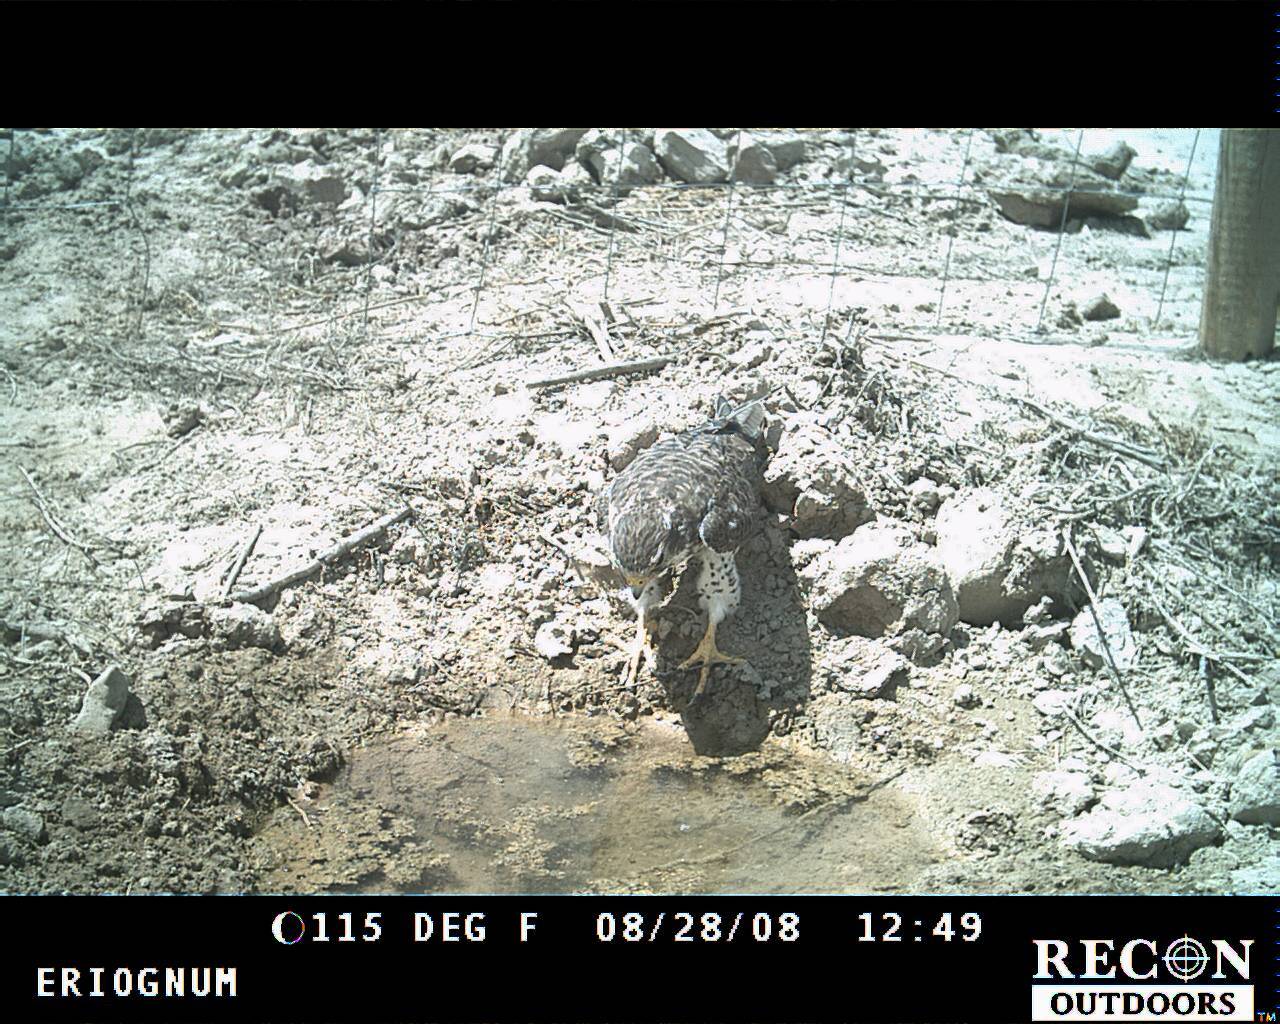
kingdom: Animalia
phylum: Chordata
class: Aves
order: Falconiformes
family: Falconidae
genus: Falco
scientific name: Falco mexicanus
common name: Prairie falcon
